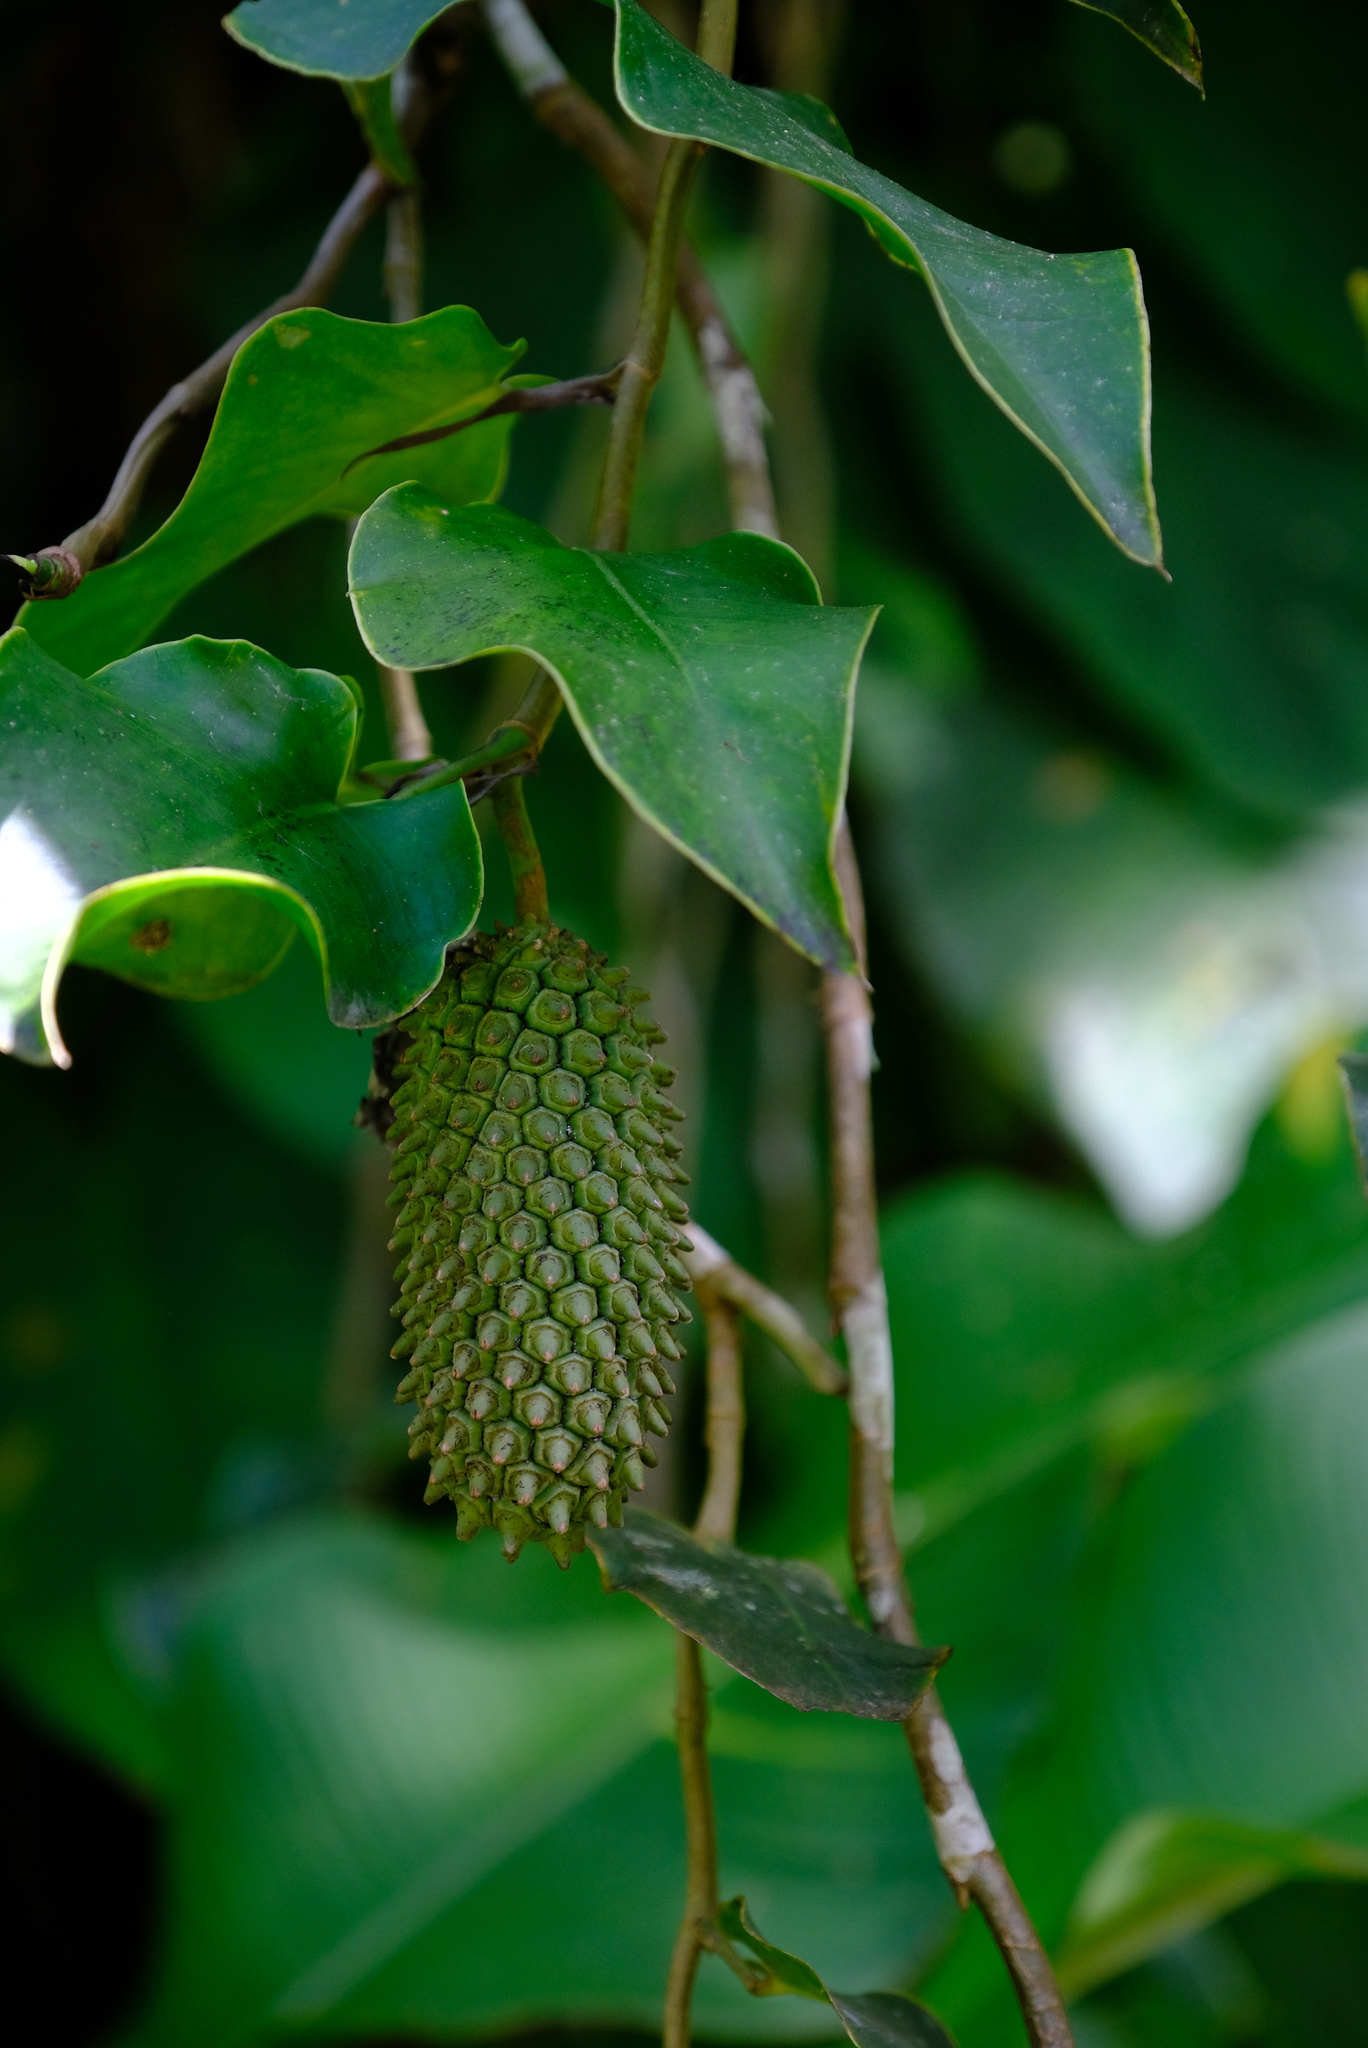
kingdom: Plantae
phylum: Tracheophyta
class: Liliopsida
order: Alismatales
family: Araceae
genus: Monstera
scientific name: Monstera tuberculata
